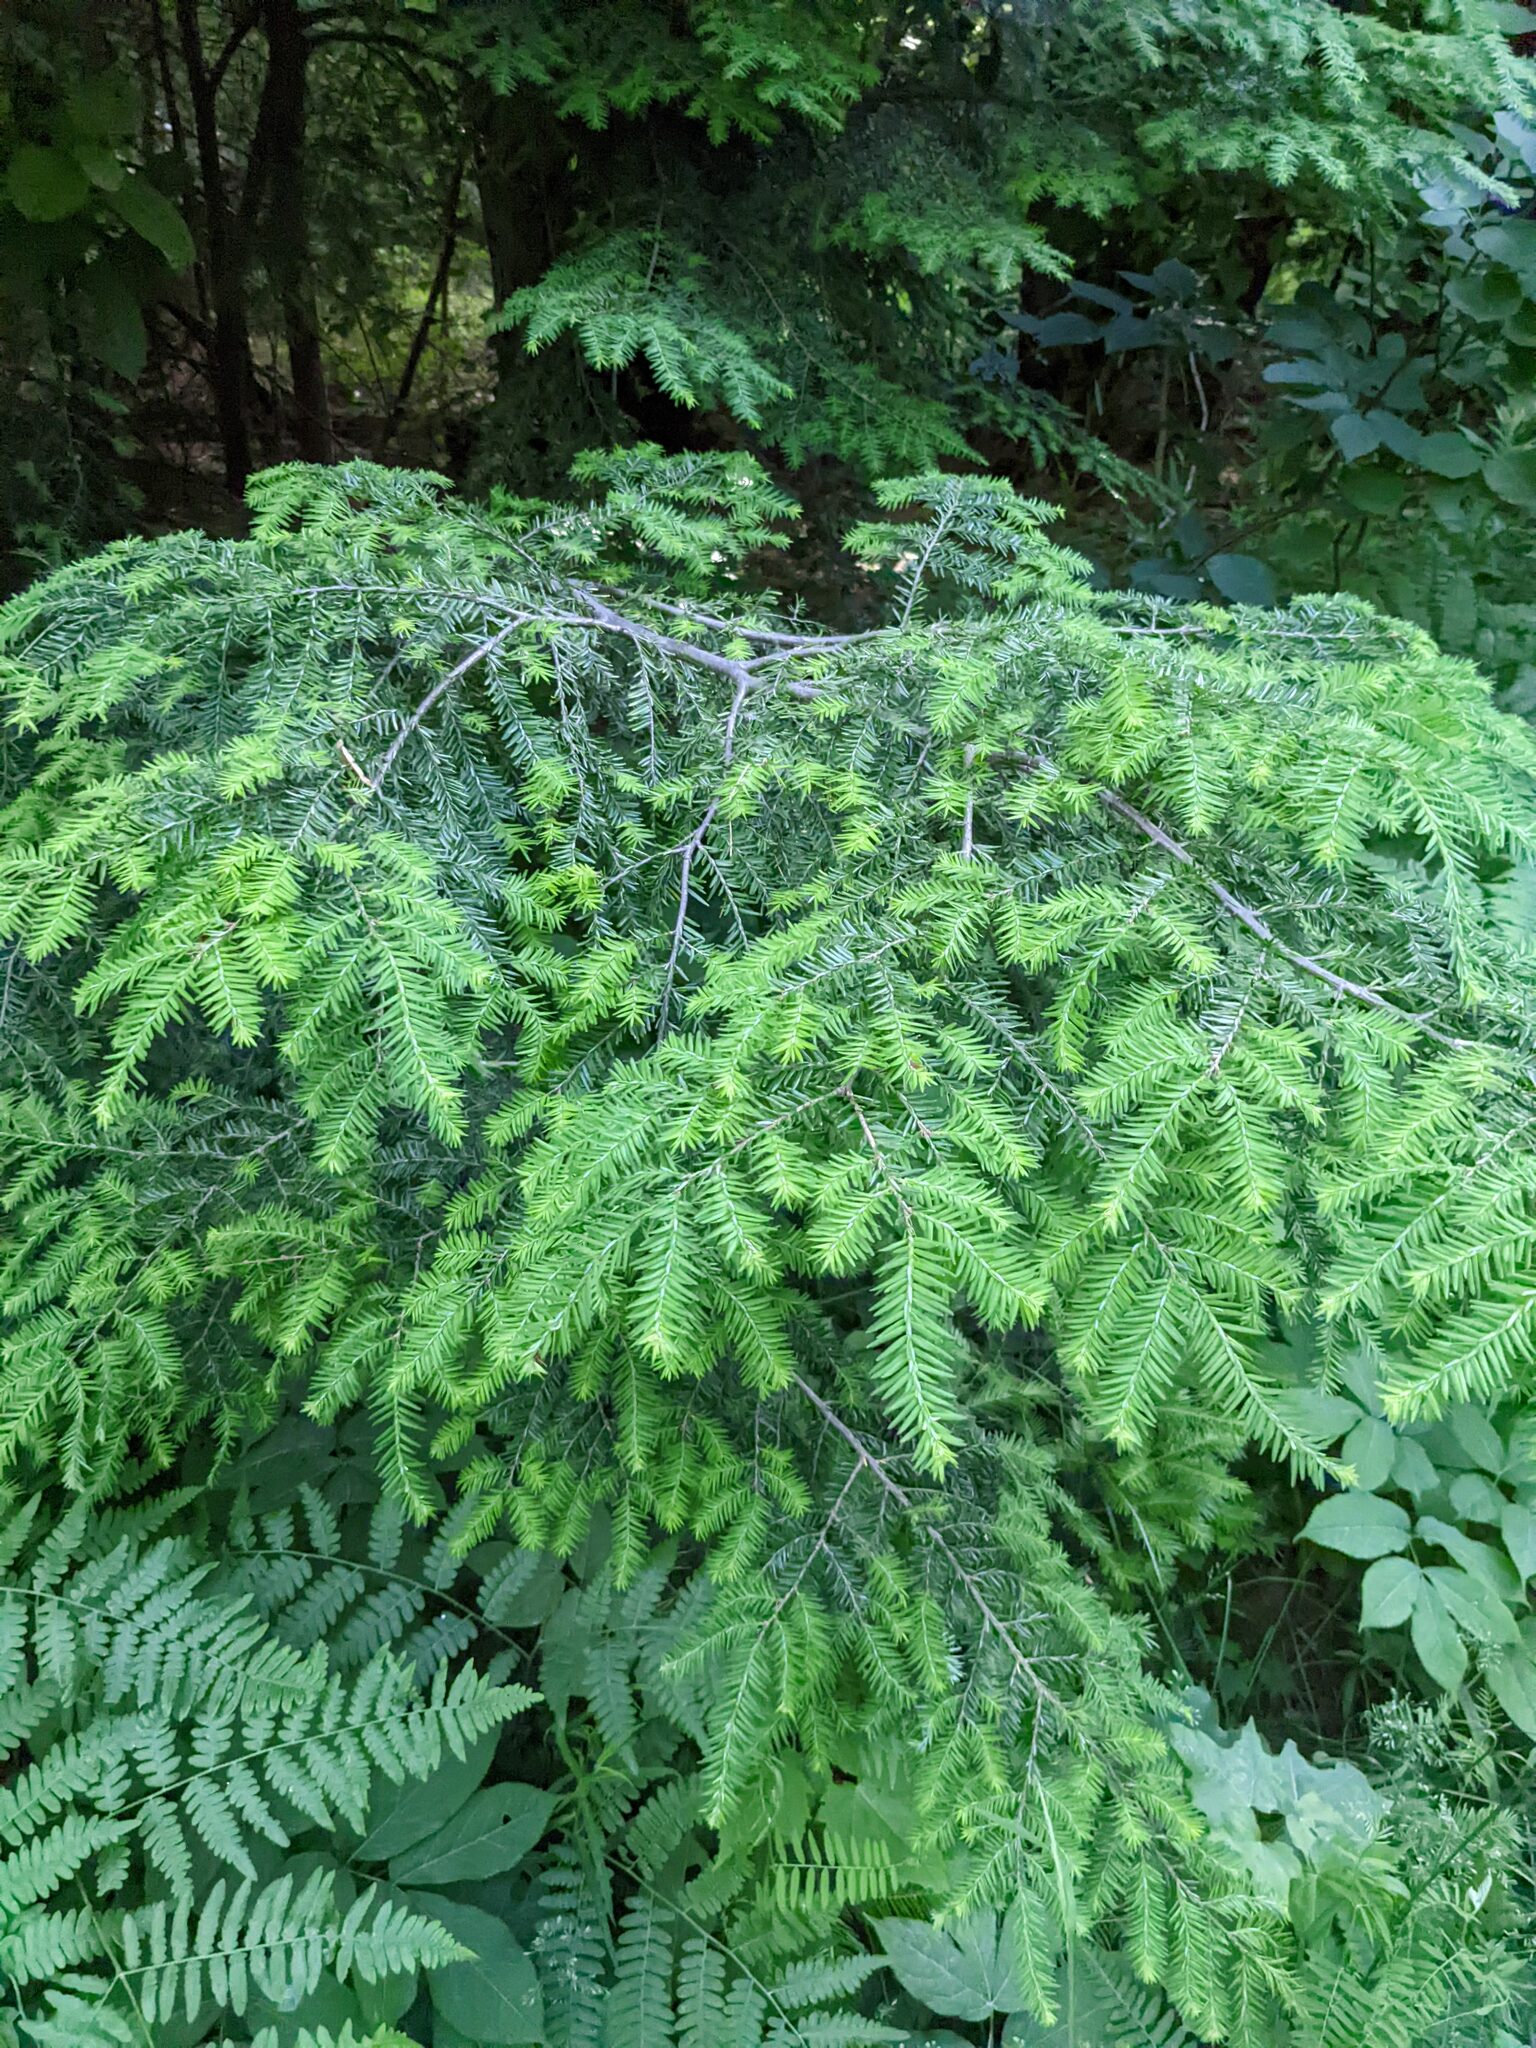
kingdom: Plantae
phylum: Tracheophyta
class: Pinopsida
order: Pinales
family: Pinaceae
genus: Tsuga
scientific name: Tsuga canadensis
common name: Eastern hemlock
